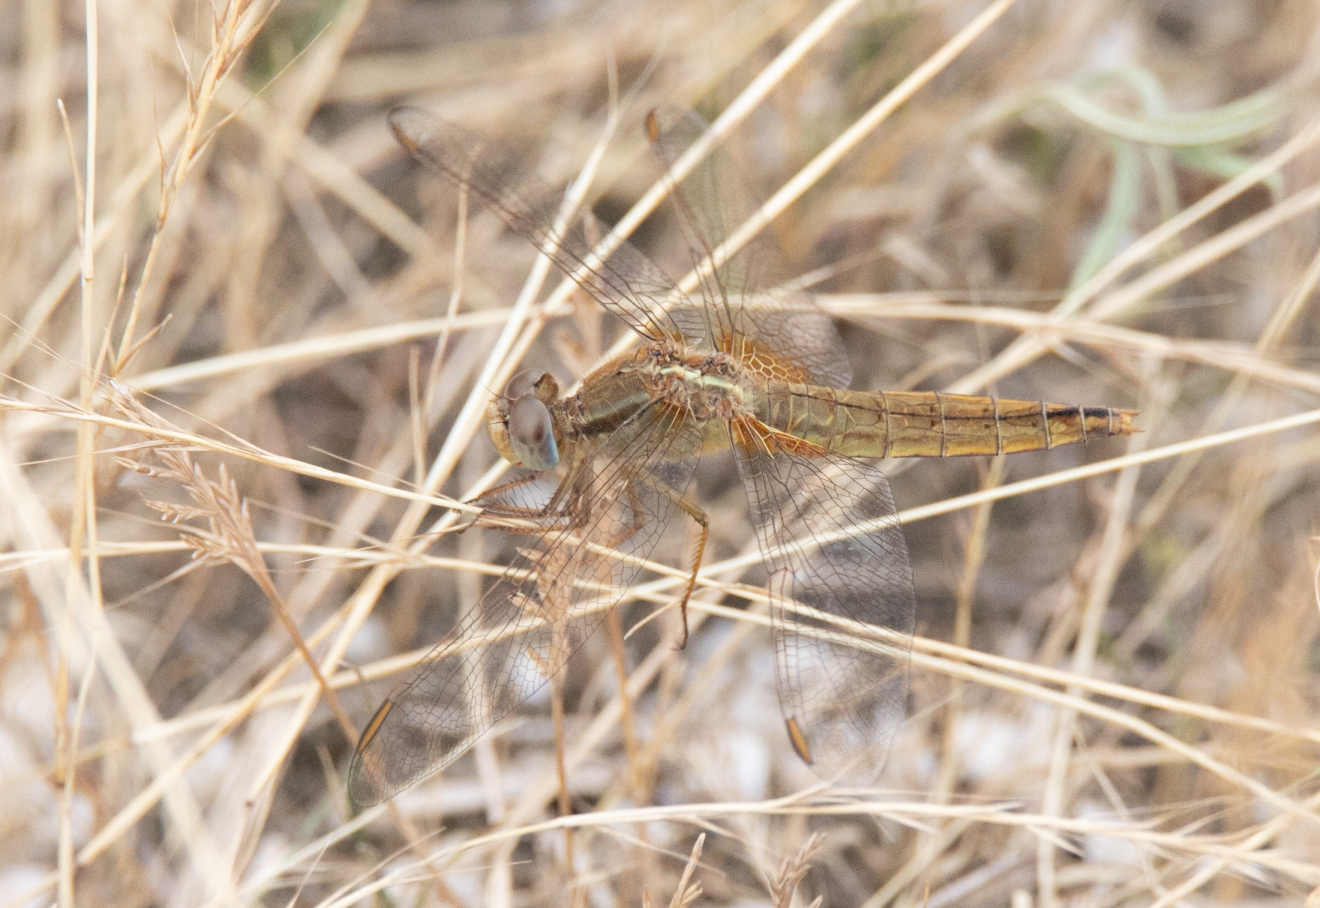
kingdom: Animalia
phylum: Arthropoda
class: Insecta
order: Odonata
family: Libellulidae
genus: Crocothemis
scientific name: Crocothemis erythraea
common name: Scarlet dragonfly
